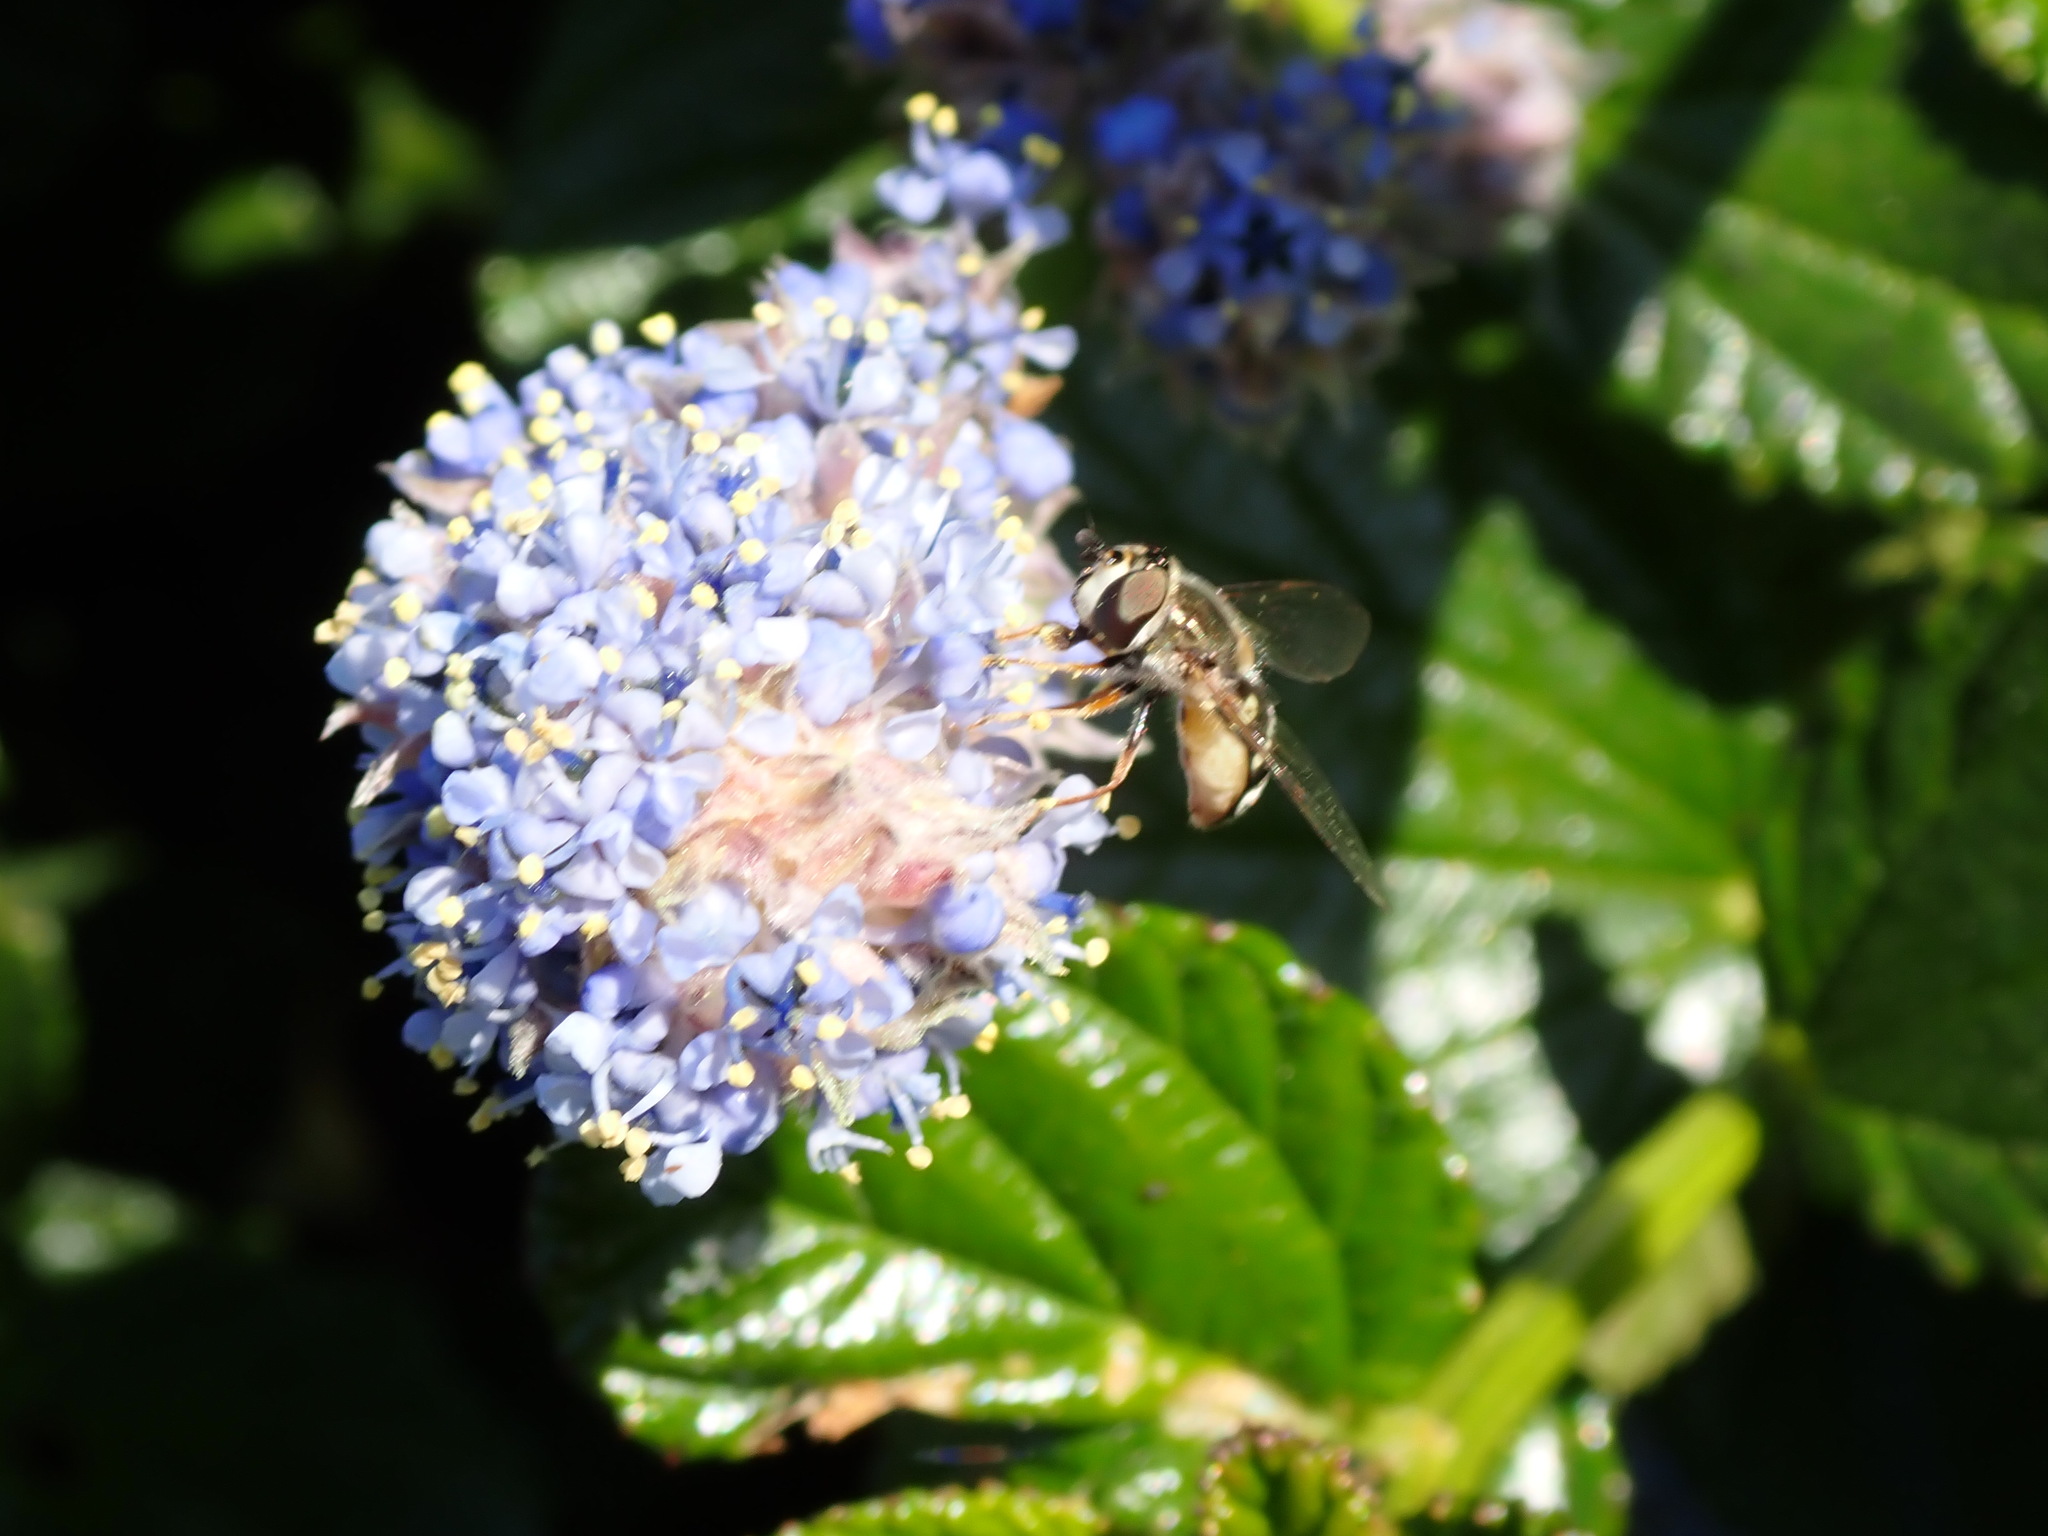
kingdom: Animalia
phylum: Arthropoda
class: Insecta
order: Diptera
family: Syrphidae
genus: Eupeodes
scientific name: Eupeodes volucris
